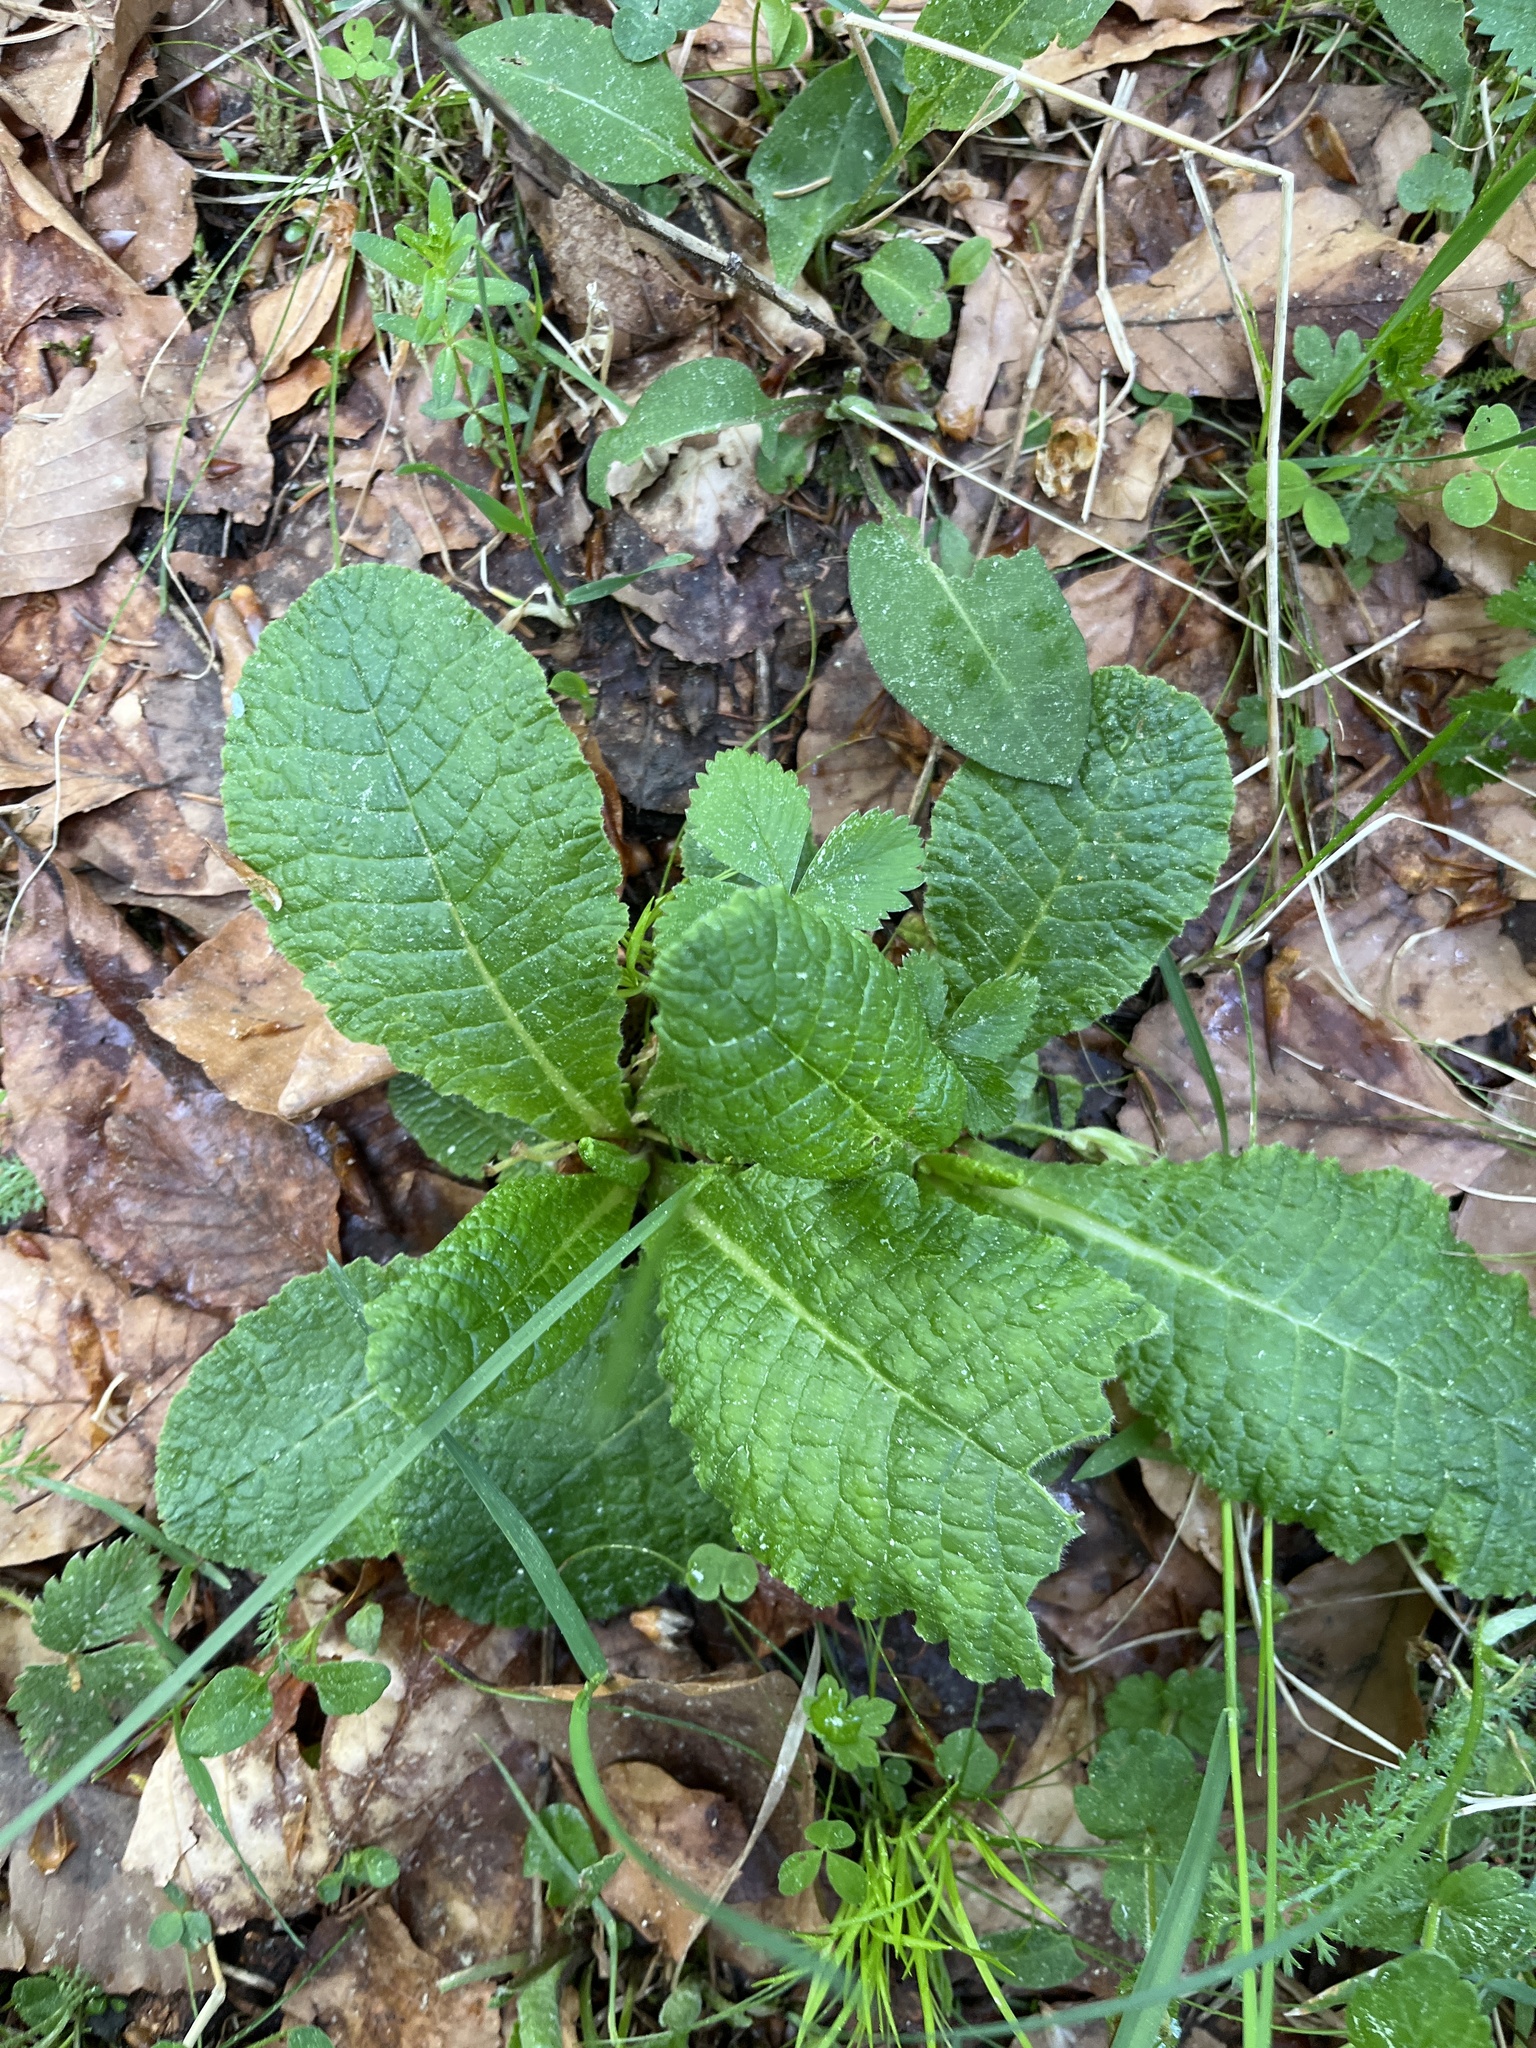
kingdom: Plantae
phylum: Tracheophyta
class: Magnoliopsida
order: Ericales
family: Primulaceae
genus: Primula
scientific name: Primula vulgaris
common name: Primrose
